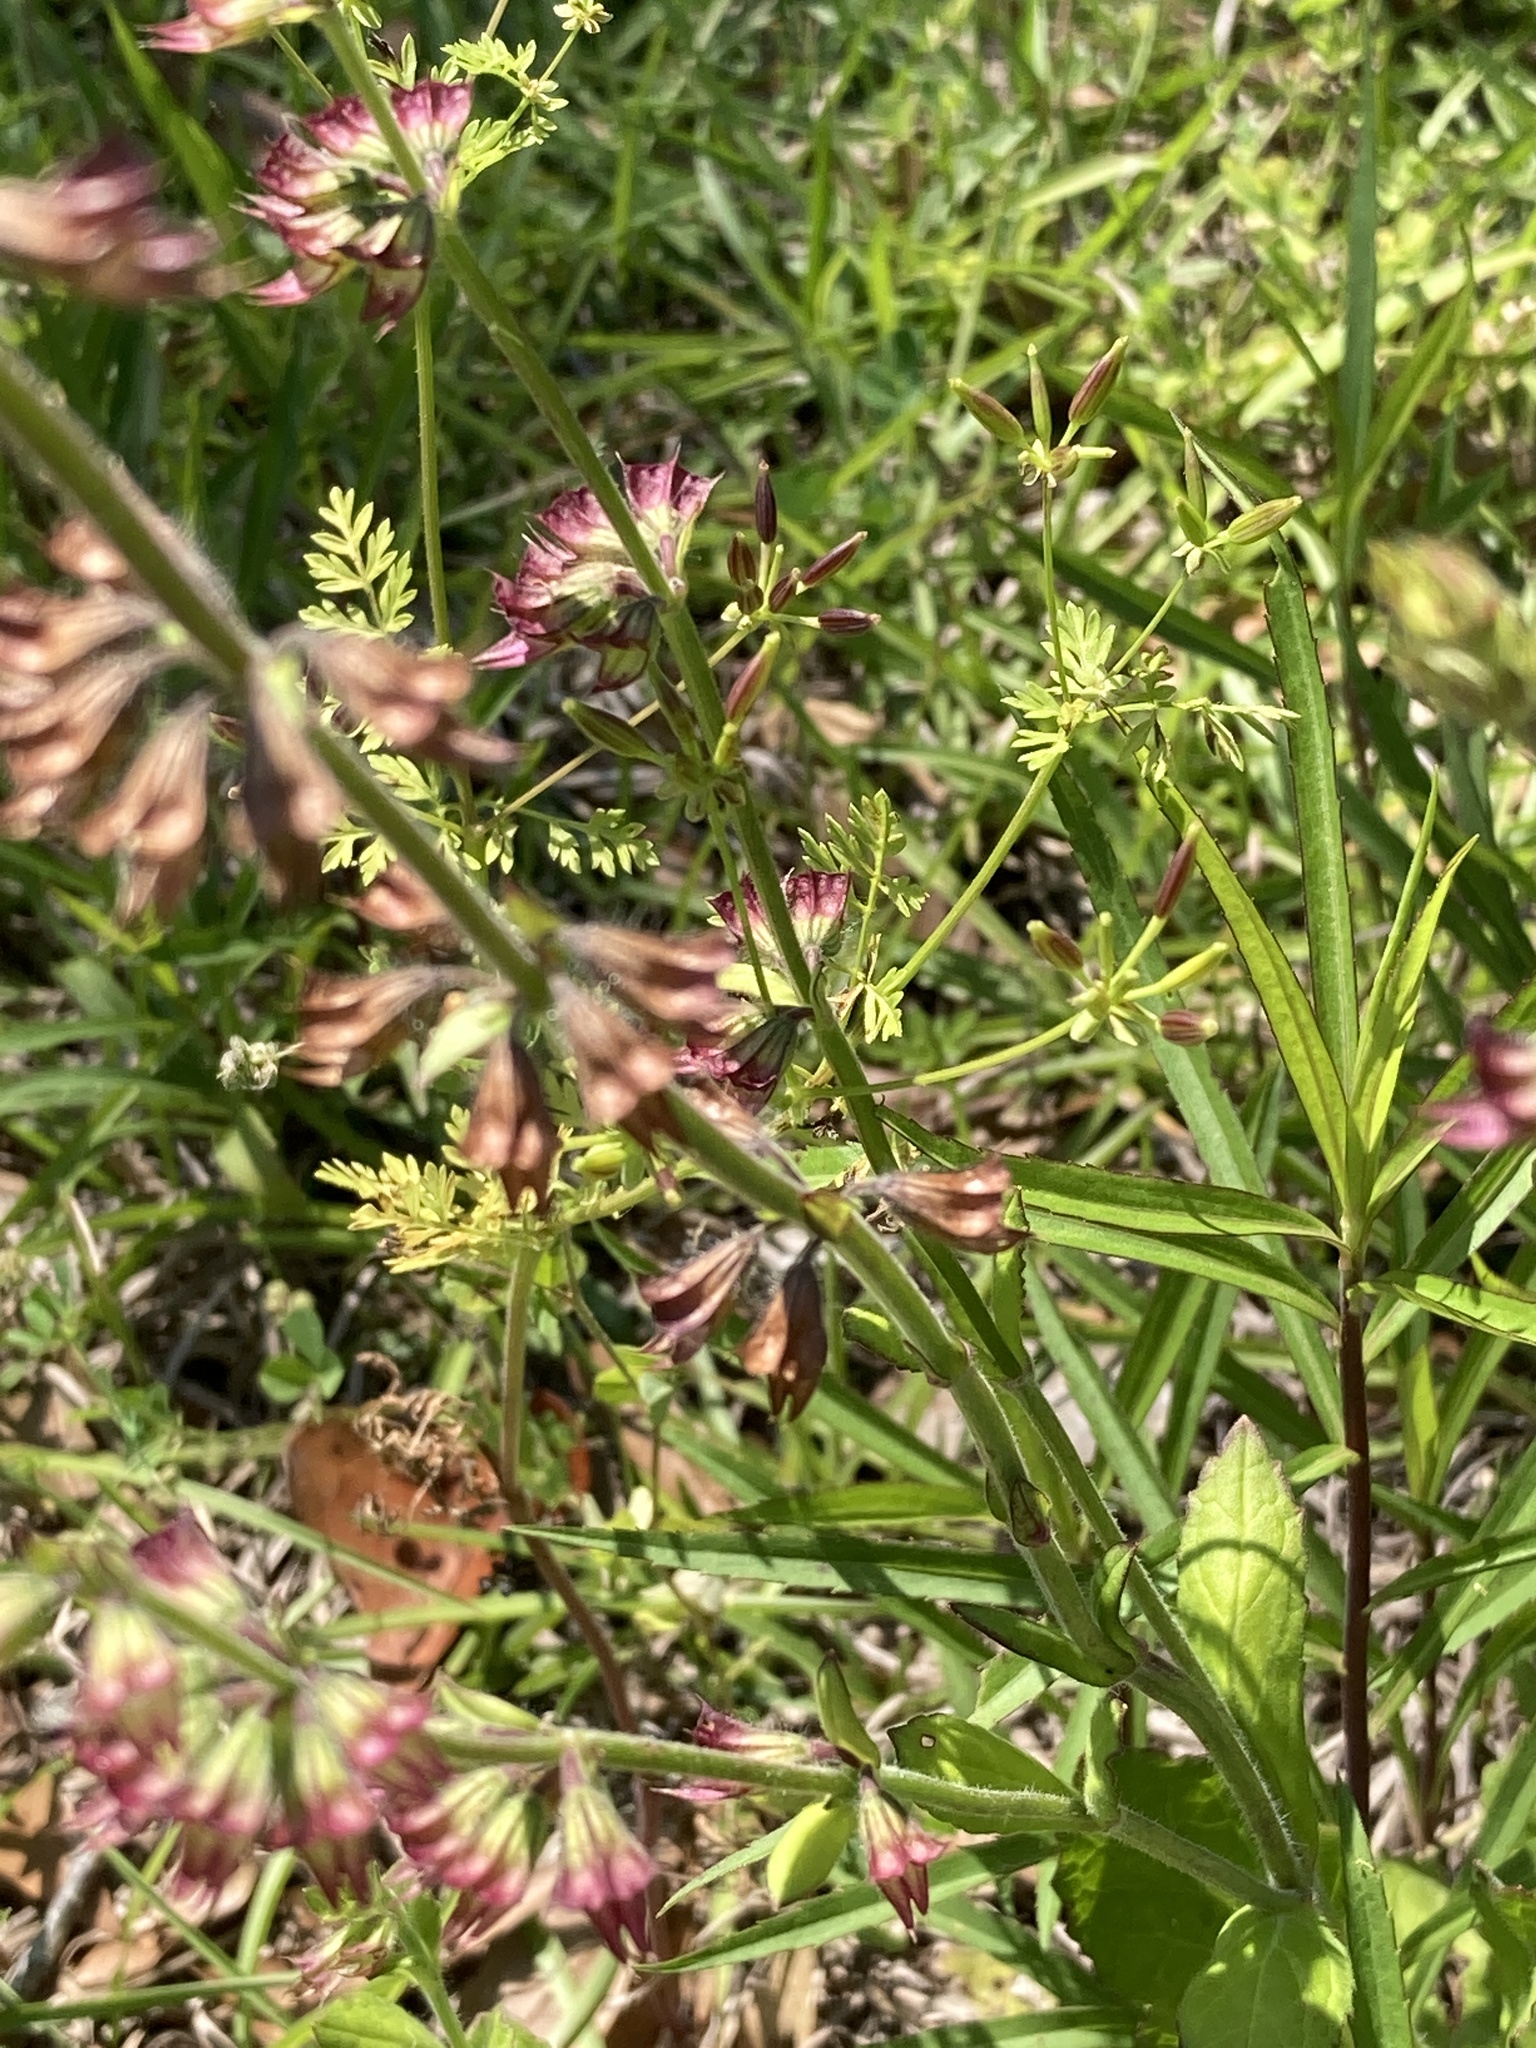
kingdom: Plantae
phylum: Tracheophyta
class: Magnoliopsida
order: Lamiales
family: Lamiaceae
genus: Salvia
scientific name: Salvia lyrata
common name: Cancerweed
